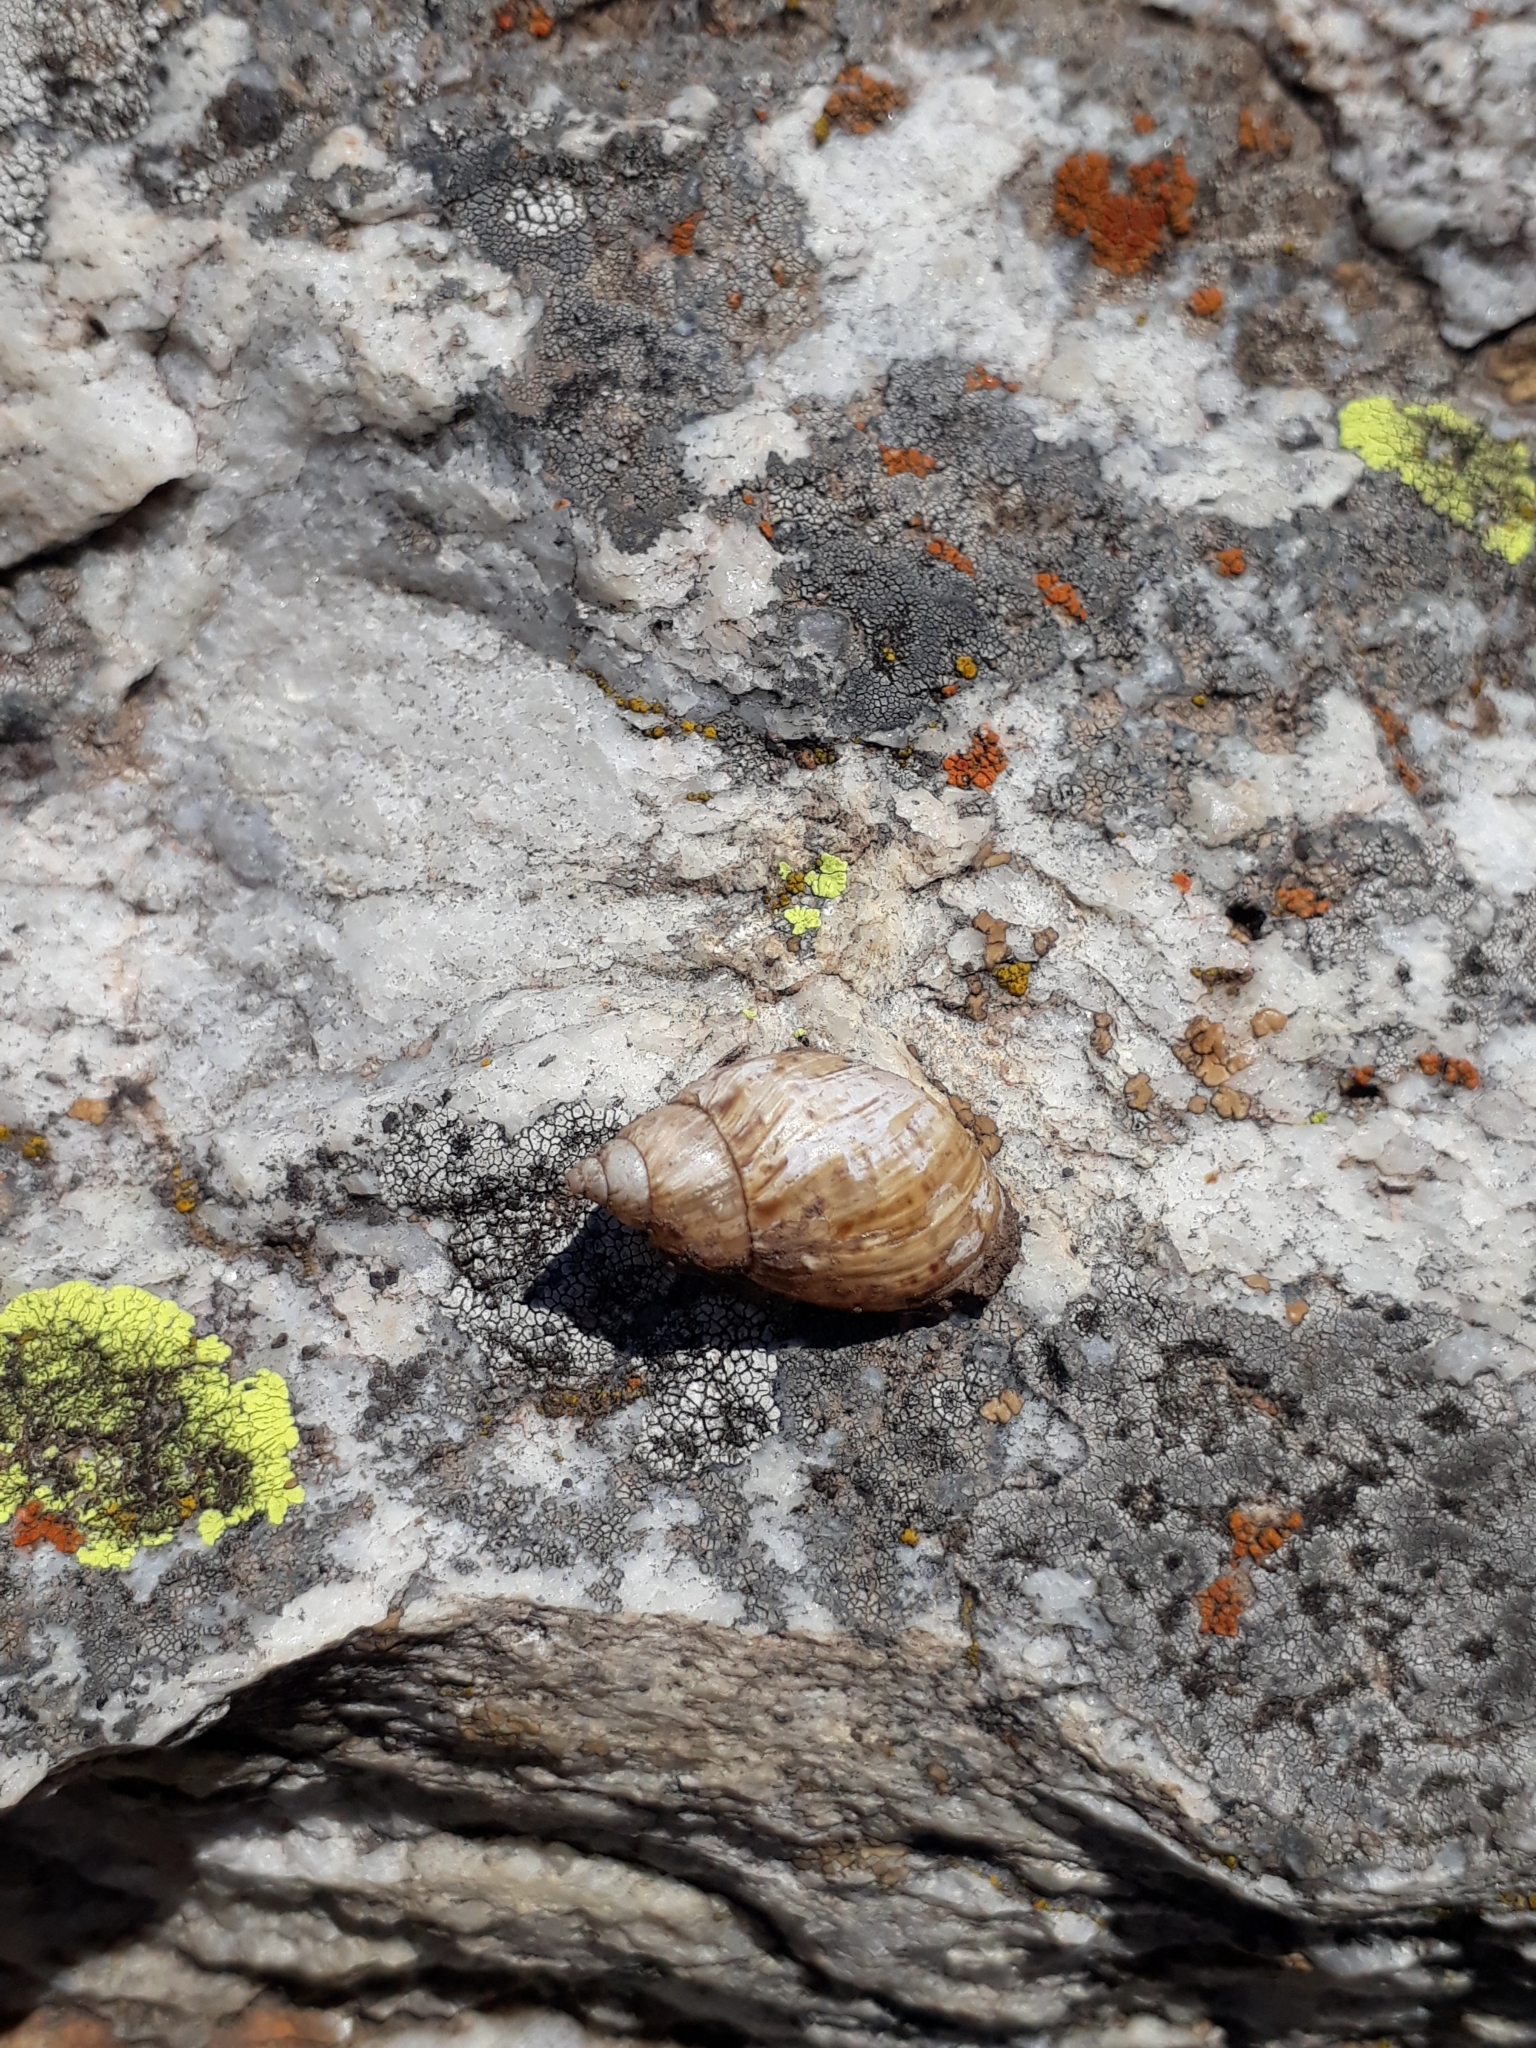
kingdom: Animalia
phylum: Mollusca
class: Gastropoda
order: Stylommatophora
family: Bothriembryontidae
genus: Discoleus
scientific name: Discoleus aguirrei
